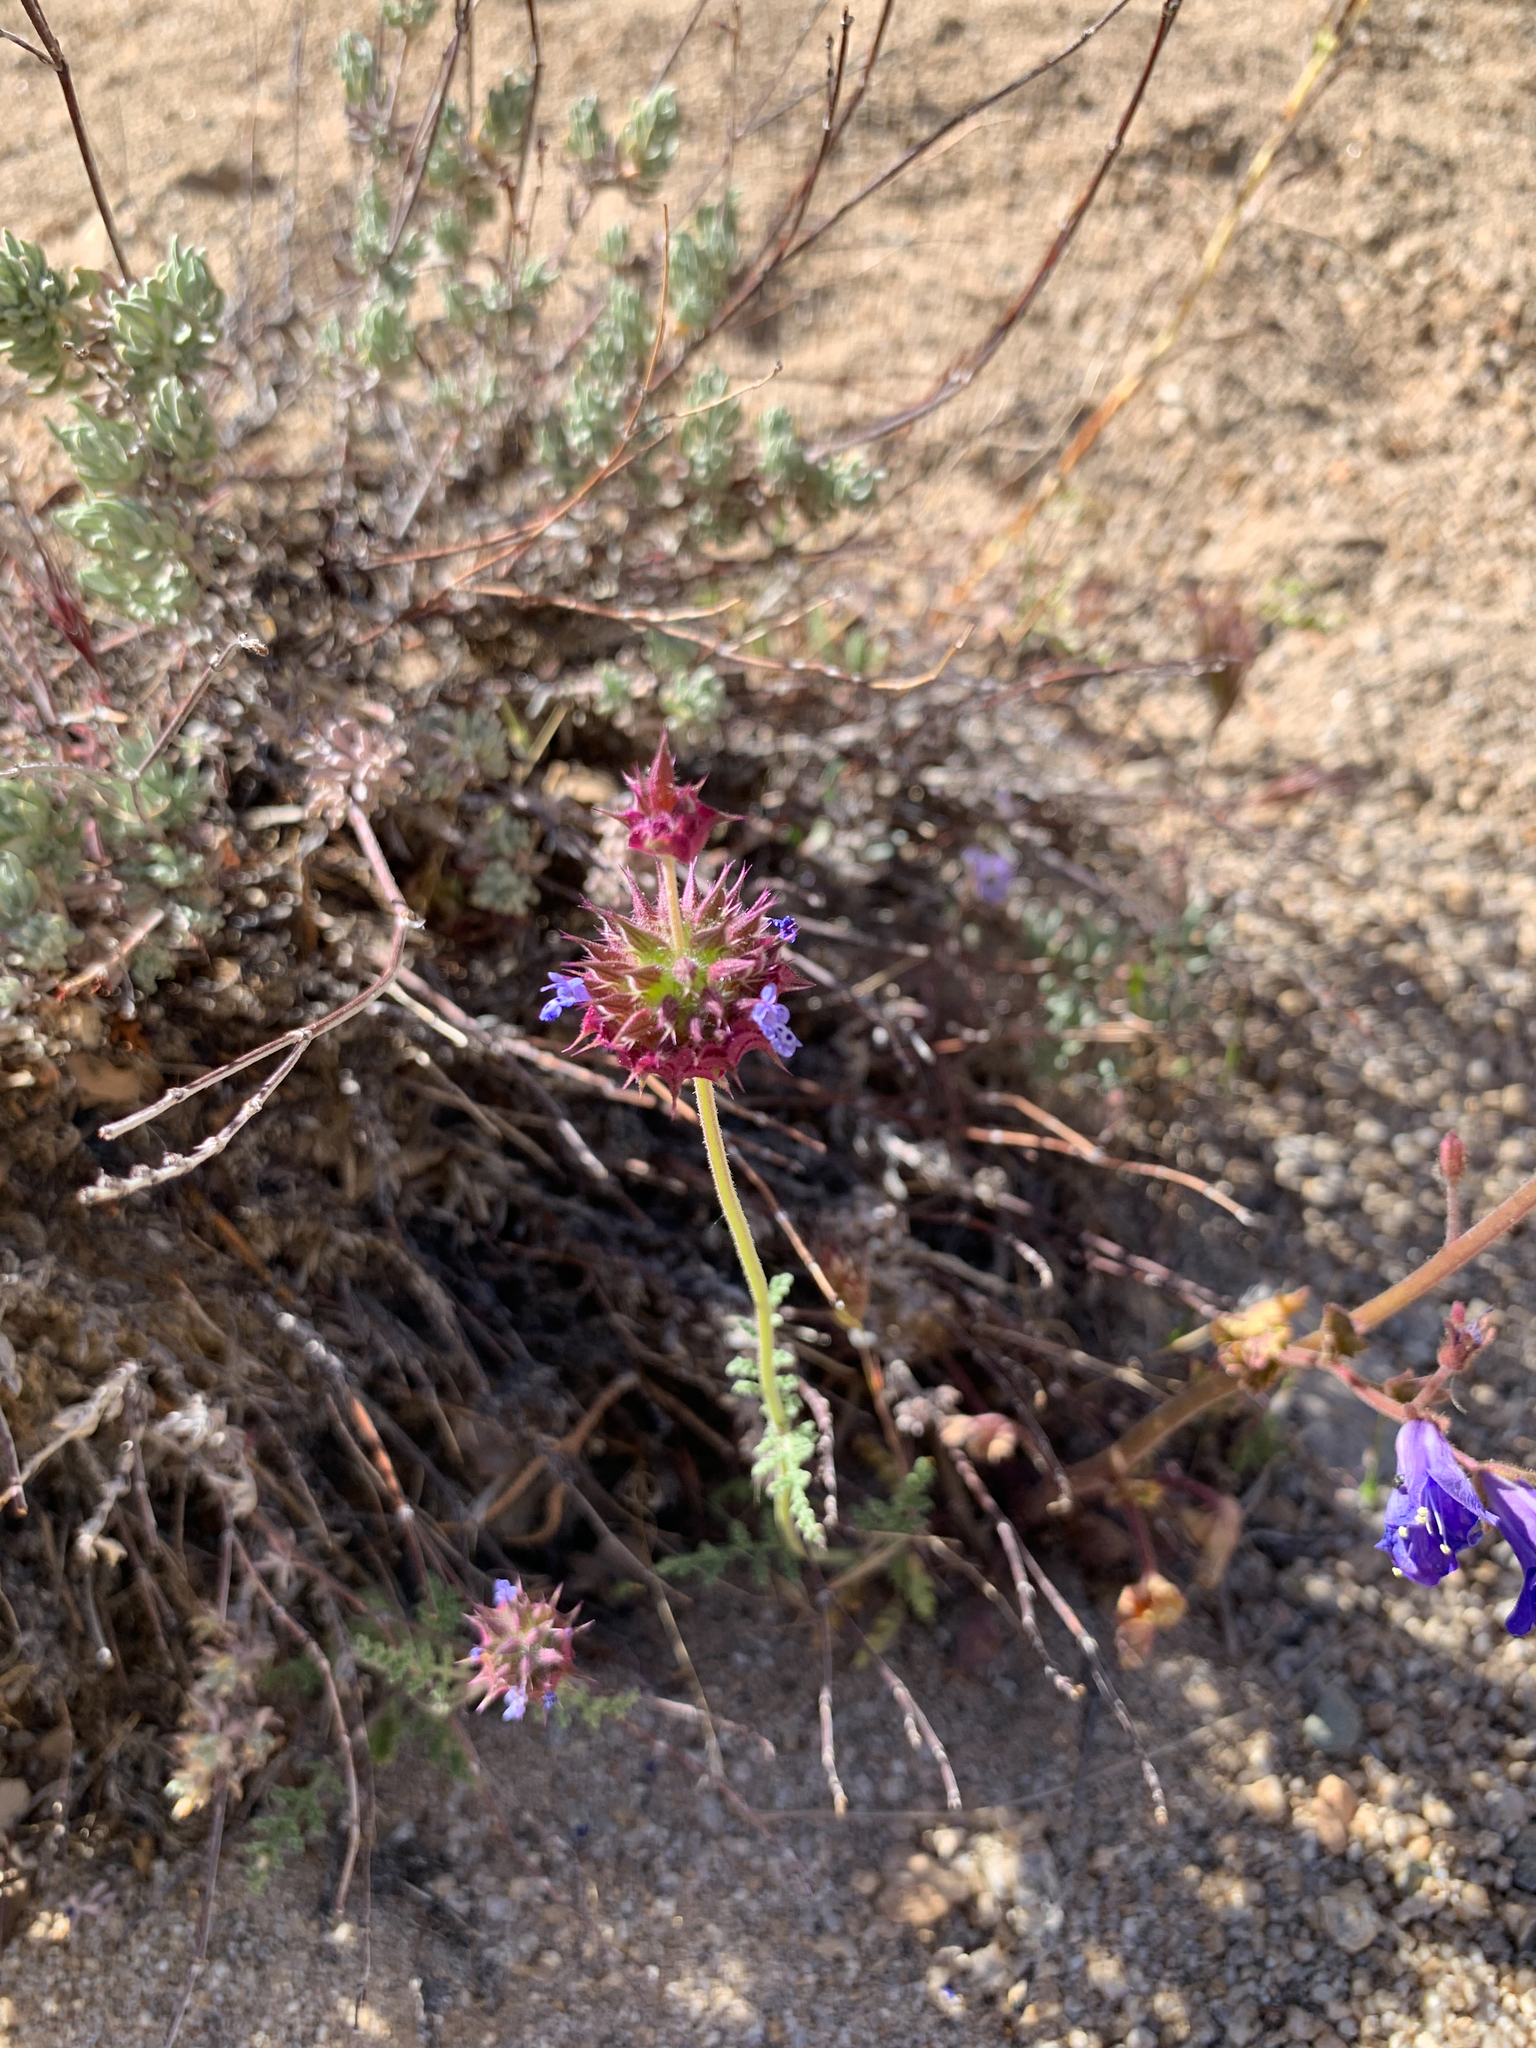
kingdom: Plantae
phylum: Tracheophyta
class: Magnoliopsida
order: Lamiales
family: Lamiaceae
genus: Salvia
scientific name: Salvia columbariae
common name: Chia
